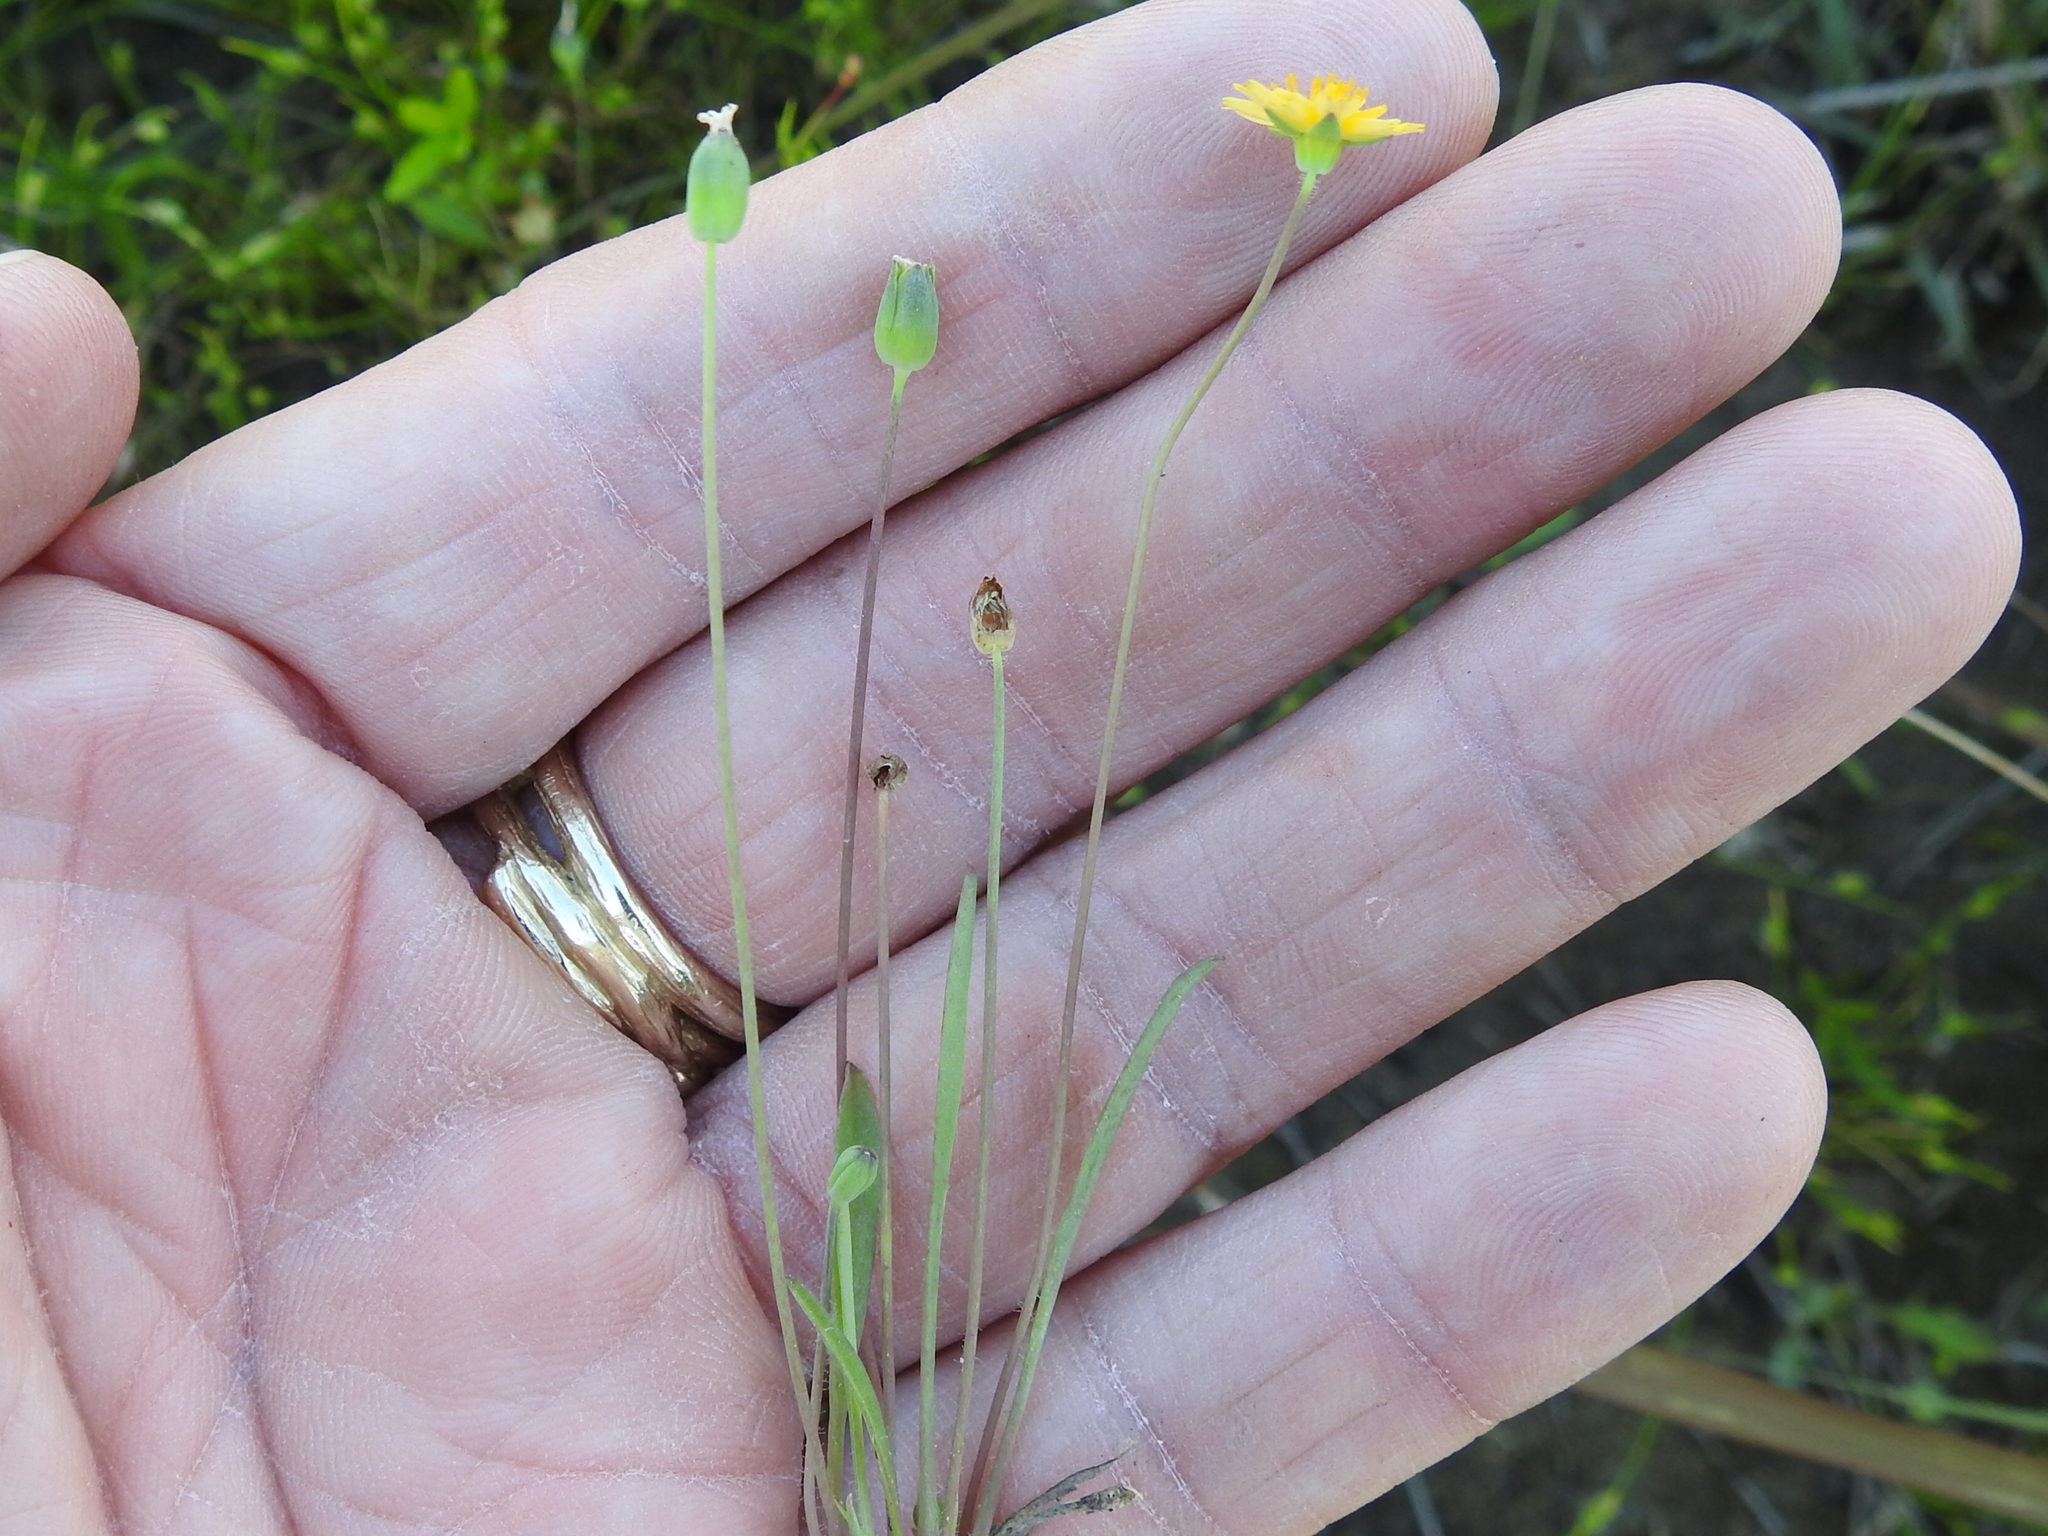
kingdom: Plantae
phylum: Tracheophyta
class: Magnoliopsida
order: Asterales
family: Asteraceae
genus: Krigia
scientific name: Krigia occidentalis
